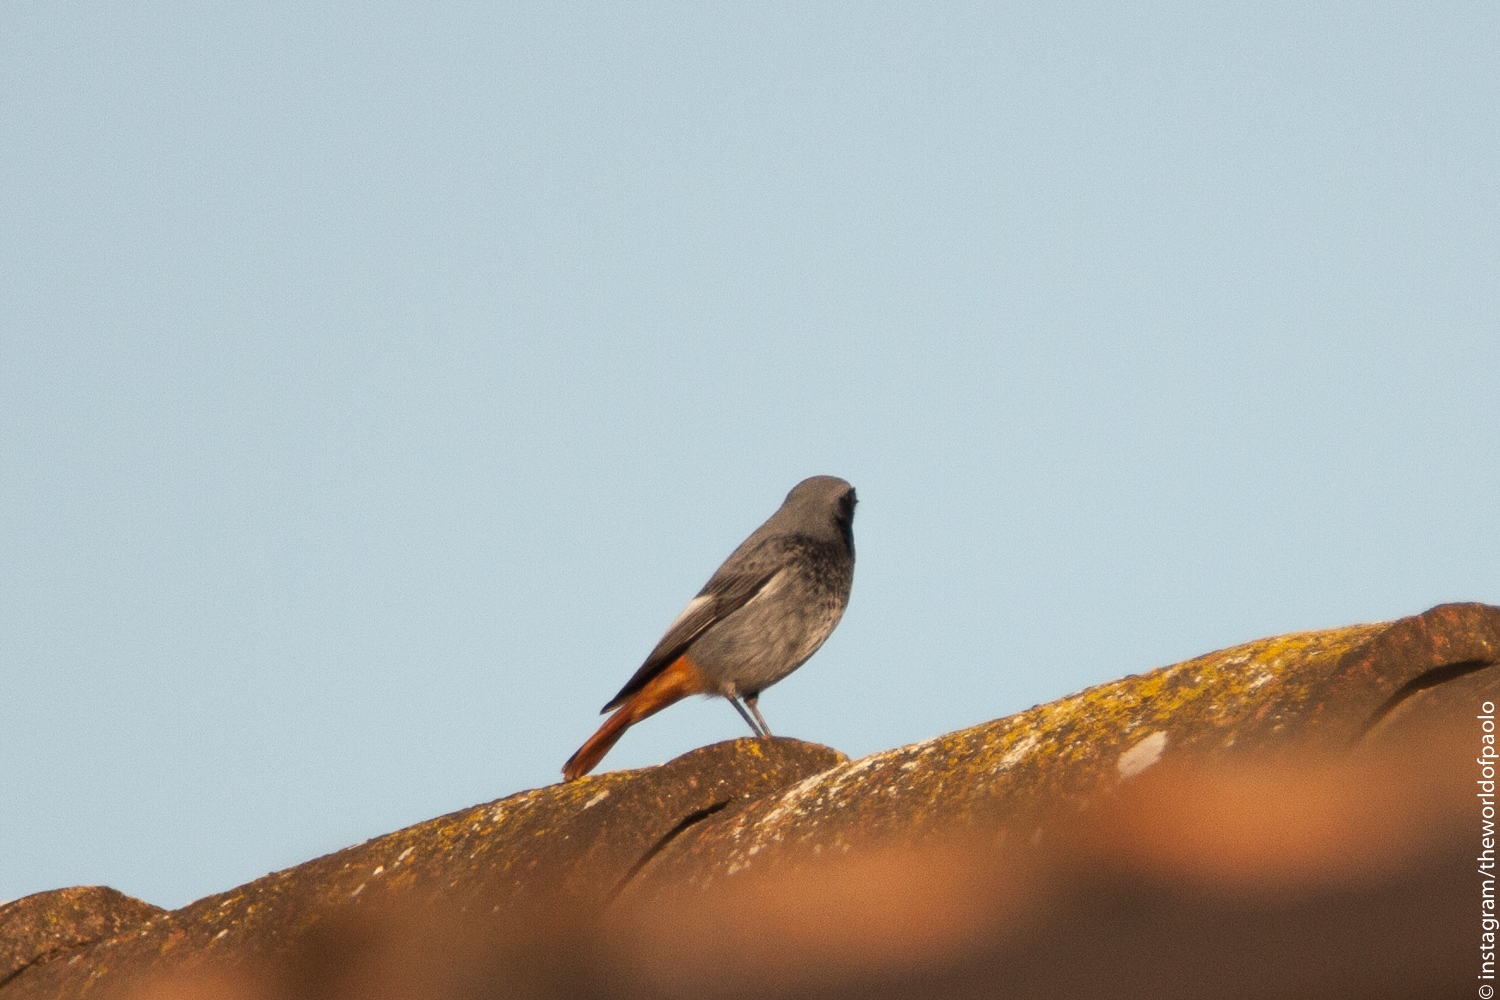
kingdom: Animalia
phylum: Chordata
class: Aves
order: Passeriformes
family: Muscicapidae
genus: Phoenicurus
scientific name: Phoenicurus ochruros
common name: Black redstart
